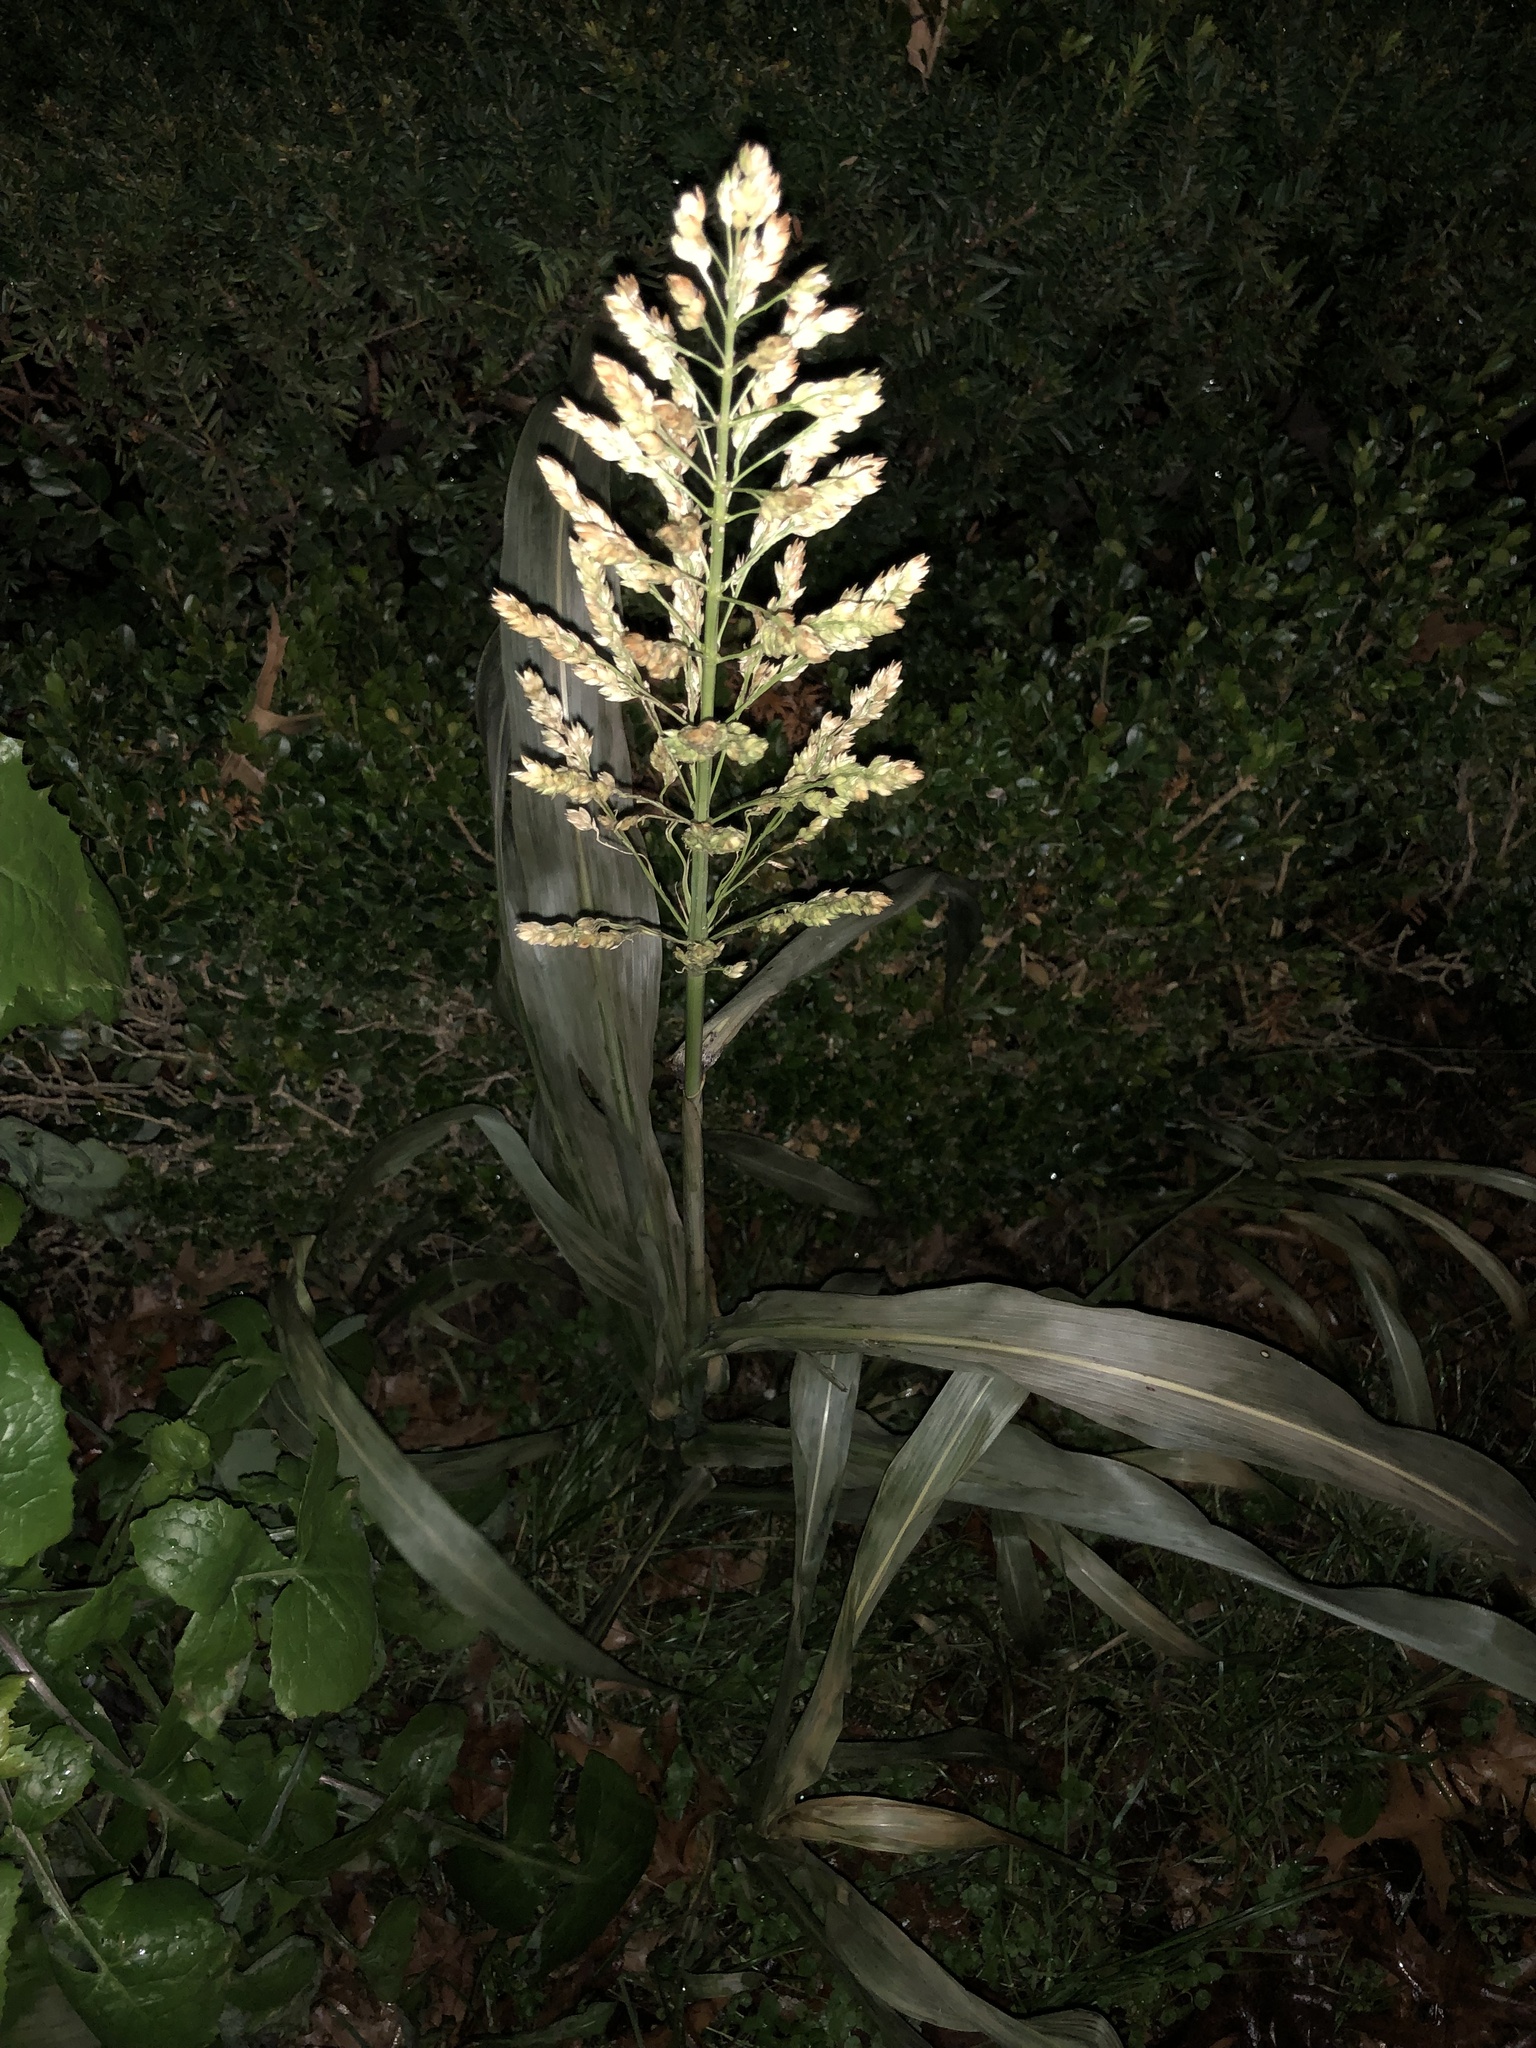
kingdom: Plantae
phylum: Tracheophyta
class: Liliopsida
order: Poales
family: Poaceae
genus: Sorghum
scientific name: Sorghum halepense
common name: Johnson-grass
